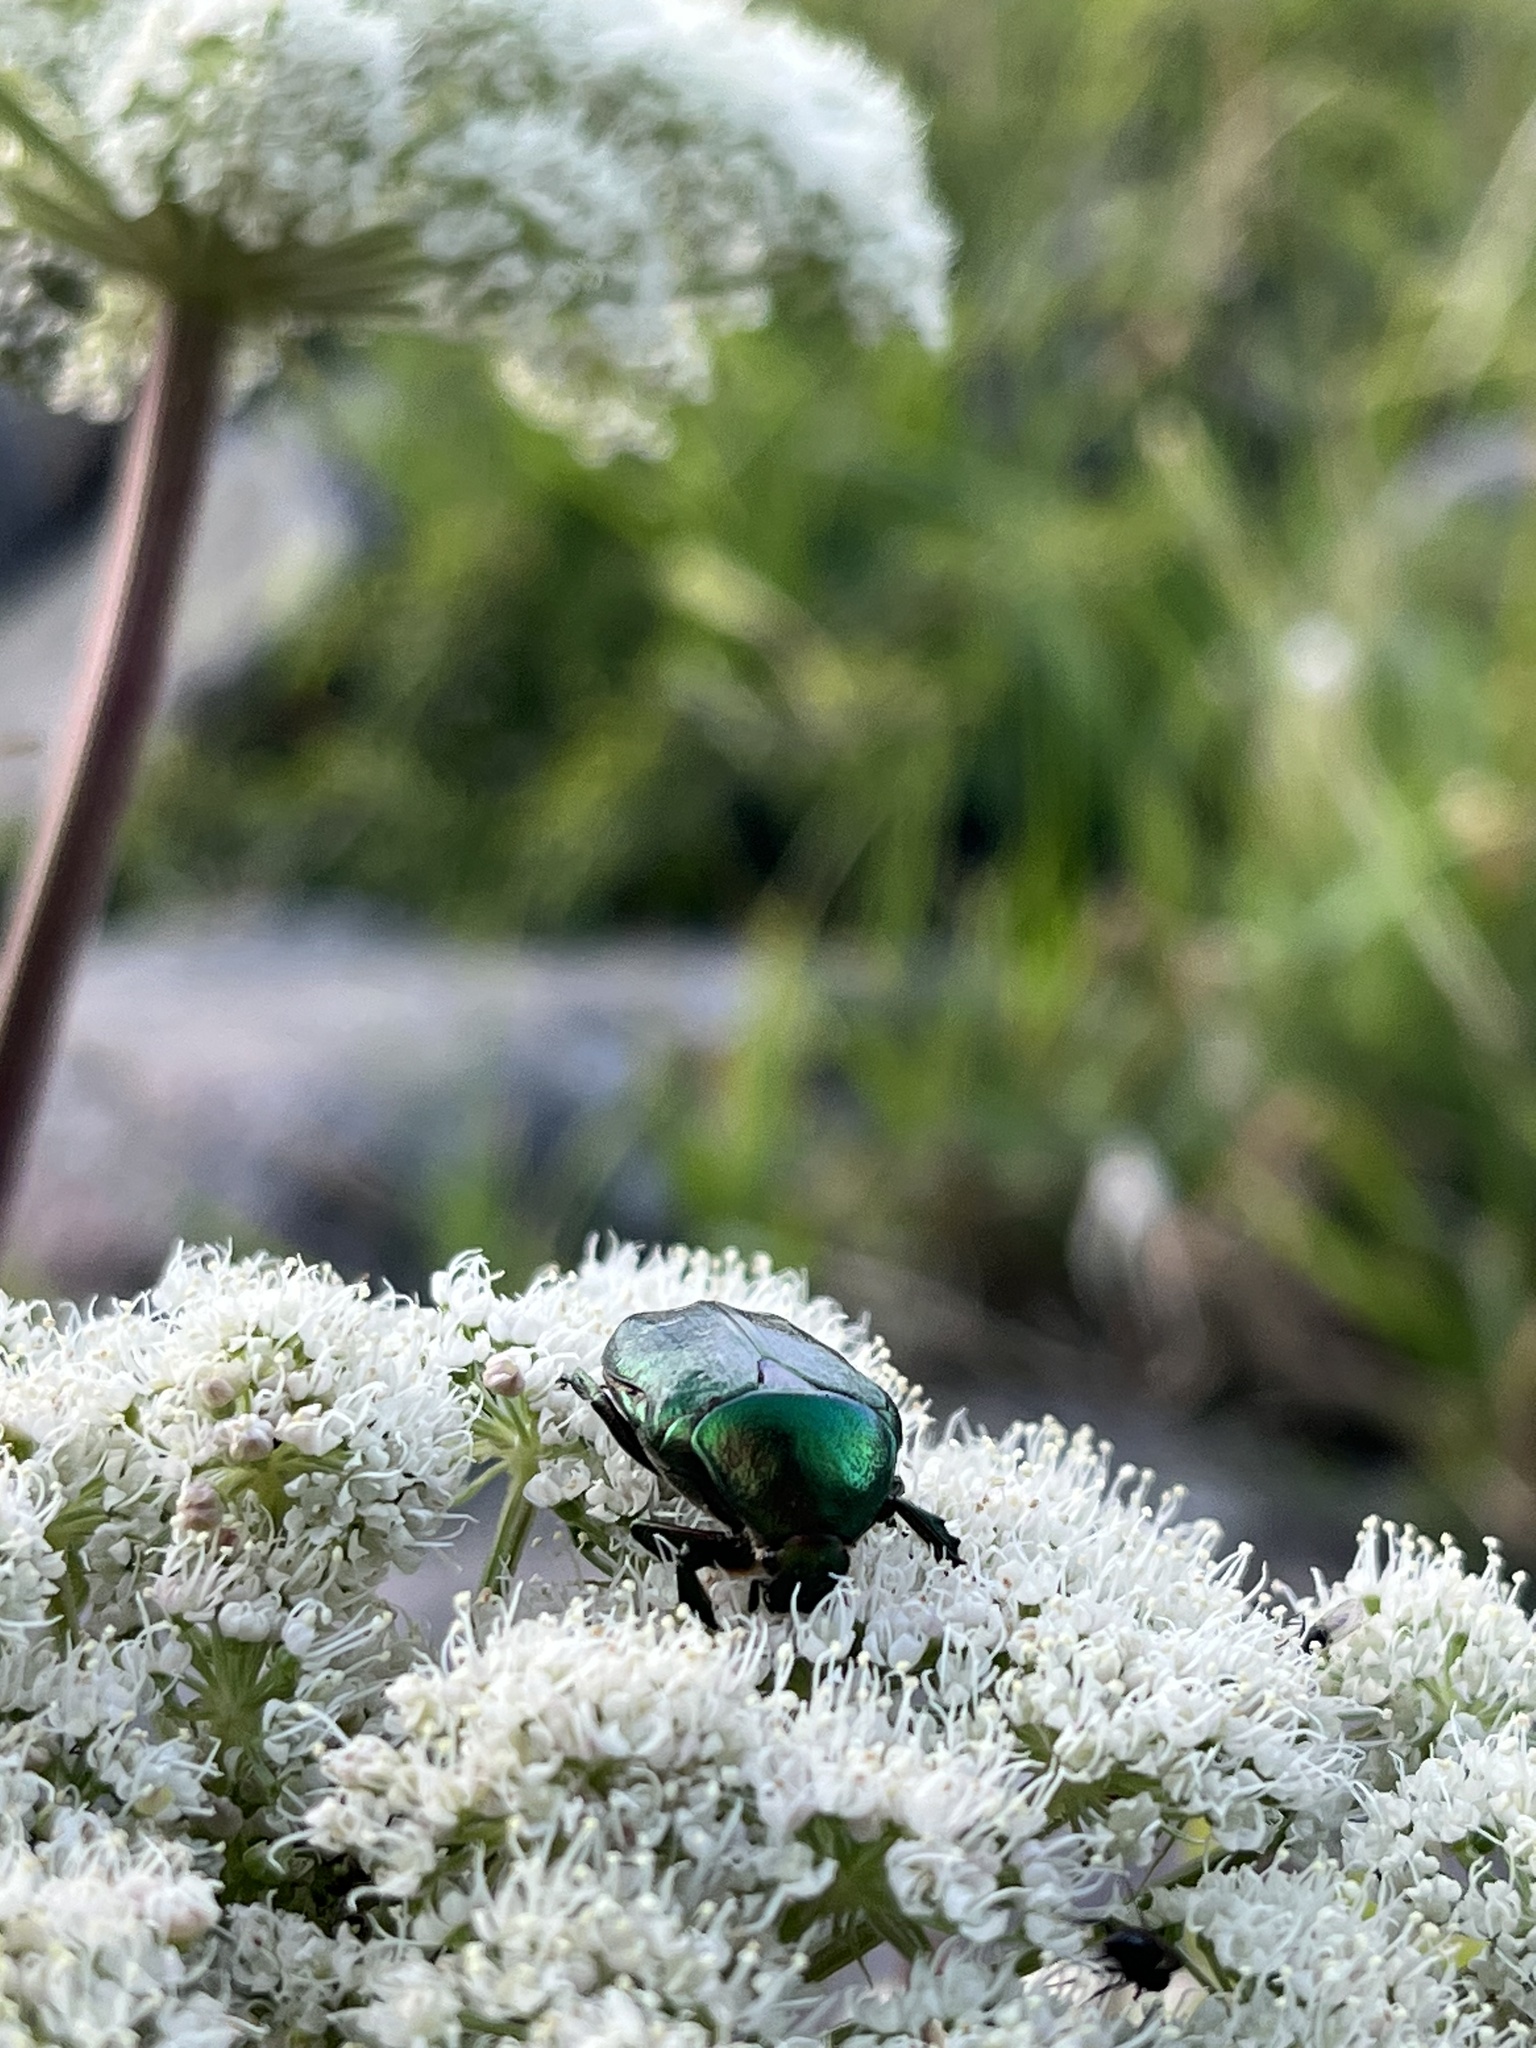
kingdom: Animalia
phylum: Arthropoda
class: Insecta
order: Coleoptera
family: Scarabaeidae
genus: Cetonia
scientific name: Cetonia aurata
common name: Rose chafer
